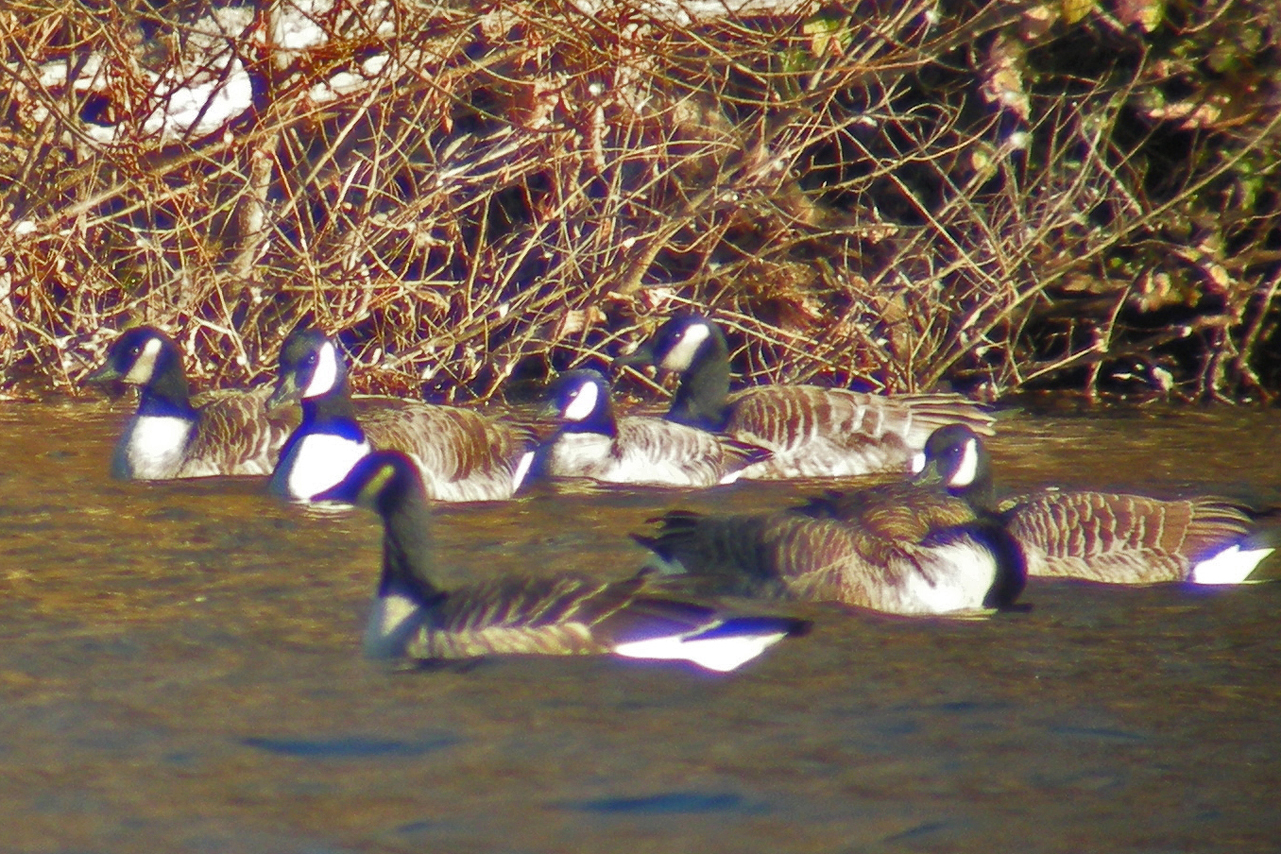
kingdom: Animalia
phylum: Chordata
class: Aves
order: Anseriformes
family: Anatidae
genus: Branta
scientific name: Branta hutchinsii
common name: Cackling goose
